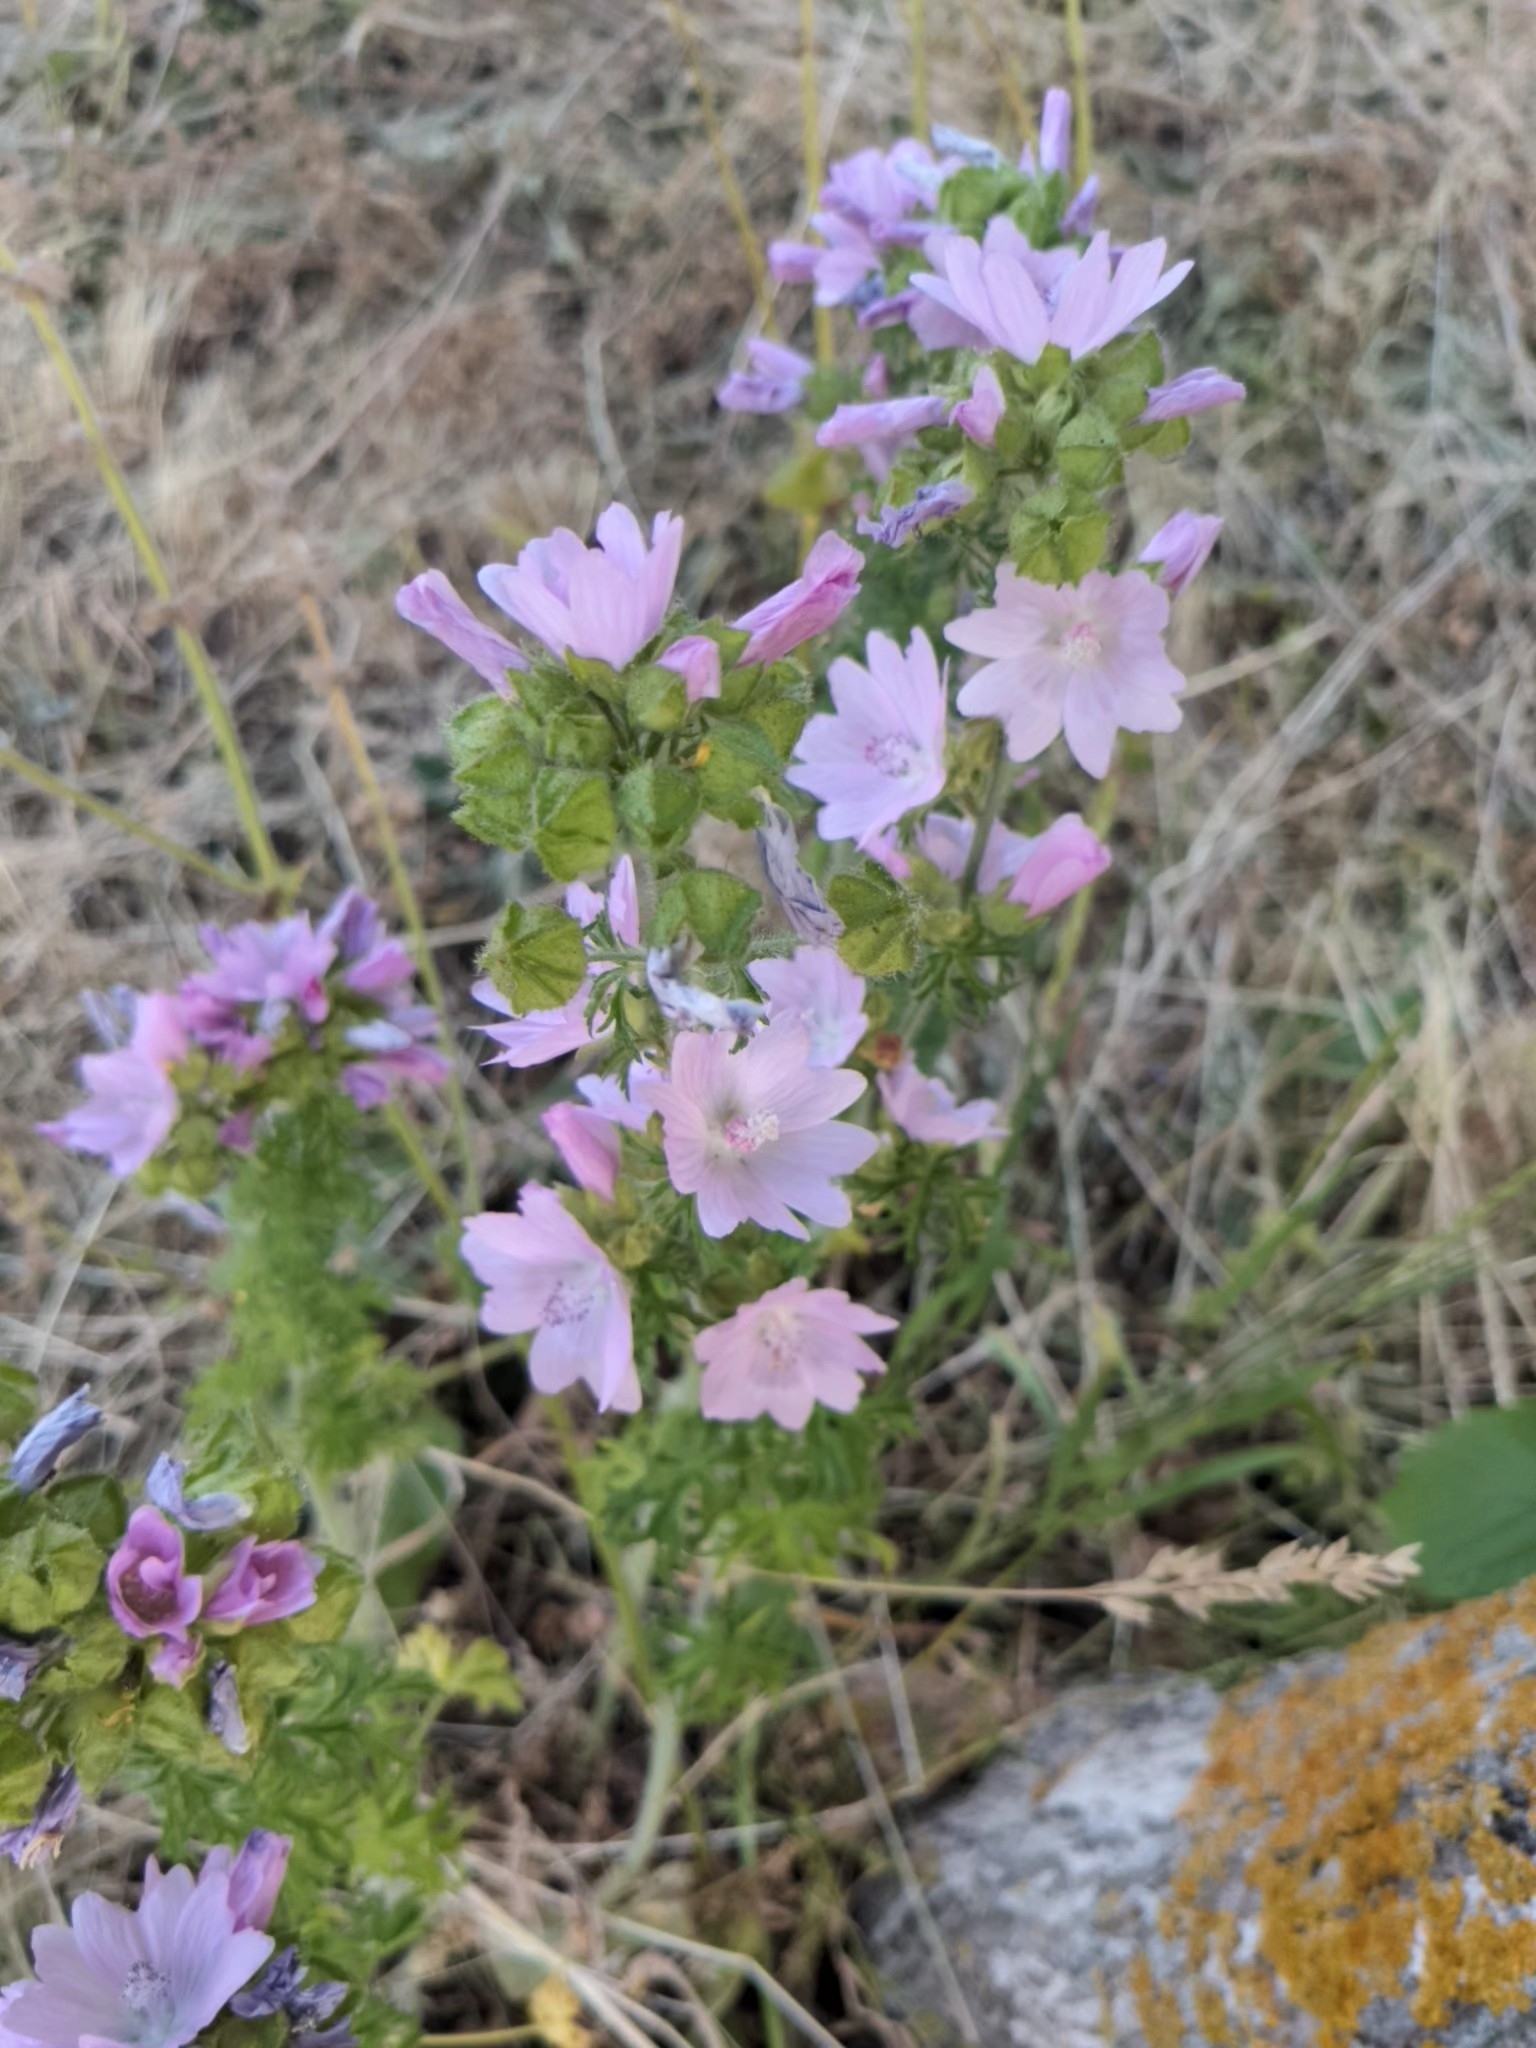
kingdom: Plantae
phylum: Tracheophyta
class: Magnoliopsida
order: Malvales
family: Malvaceae
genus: Malva
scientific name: Malva moschata
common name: Musk mallow
